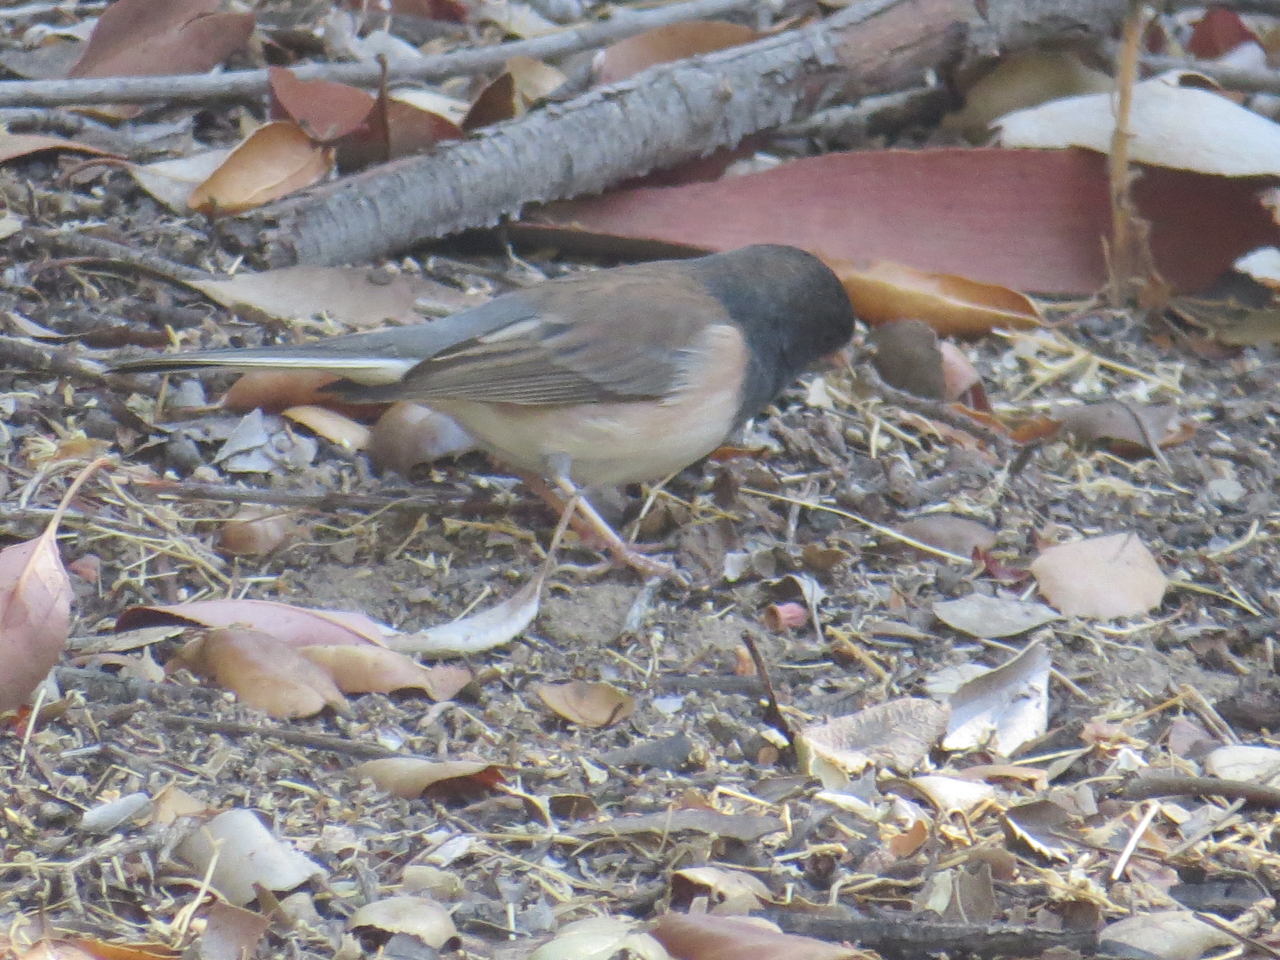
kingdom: Animalia
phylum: Chordata
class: Aves
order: Passeriformes
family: Passerellidae
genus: Junco
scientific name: Junco hyemalis
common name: Dark-eyed junco
